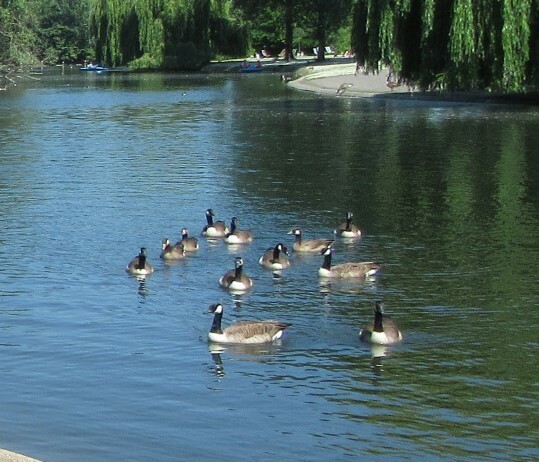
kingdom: Animalia
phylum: Chordata
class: Aves
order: Anseriformes
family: Anatidae
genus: Branta
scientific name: Branta canadensis
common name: Canada goose
